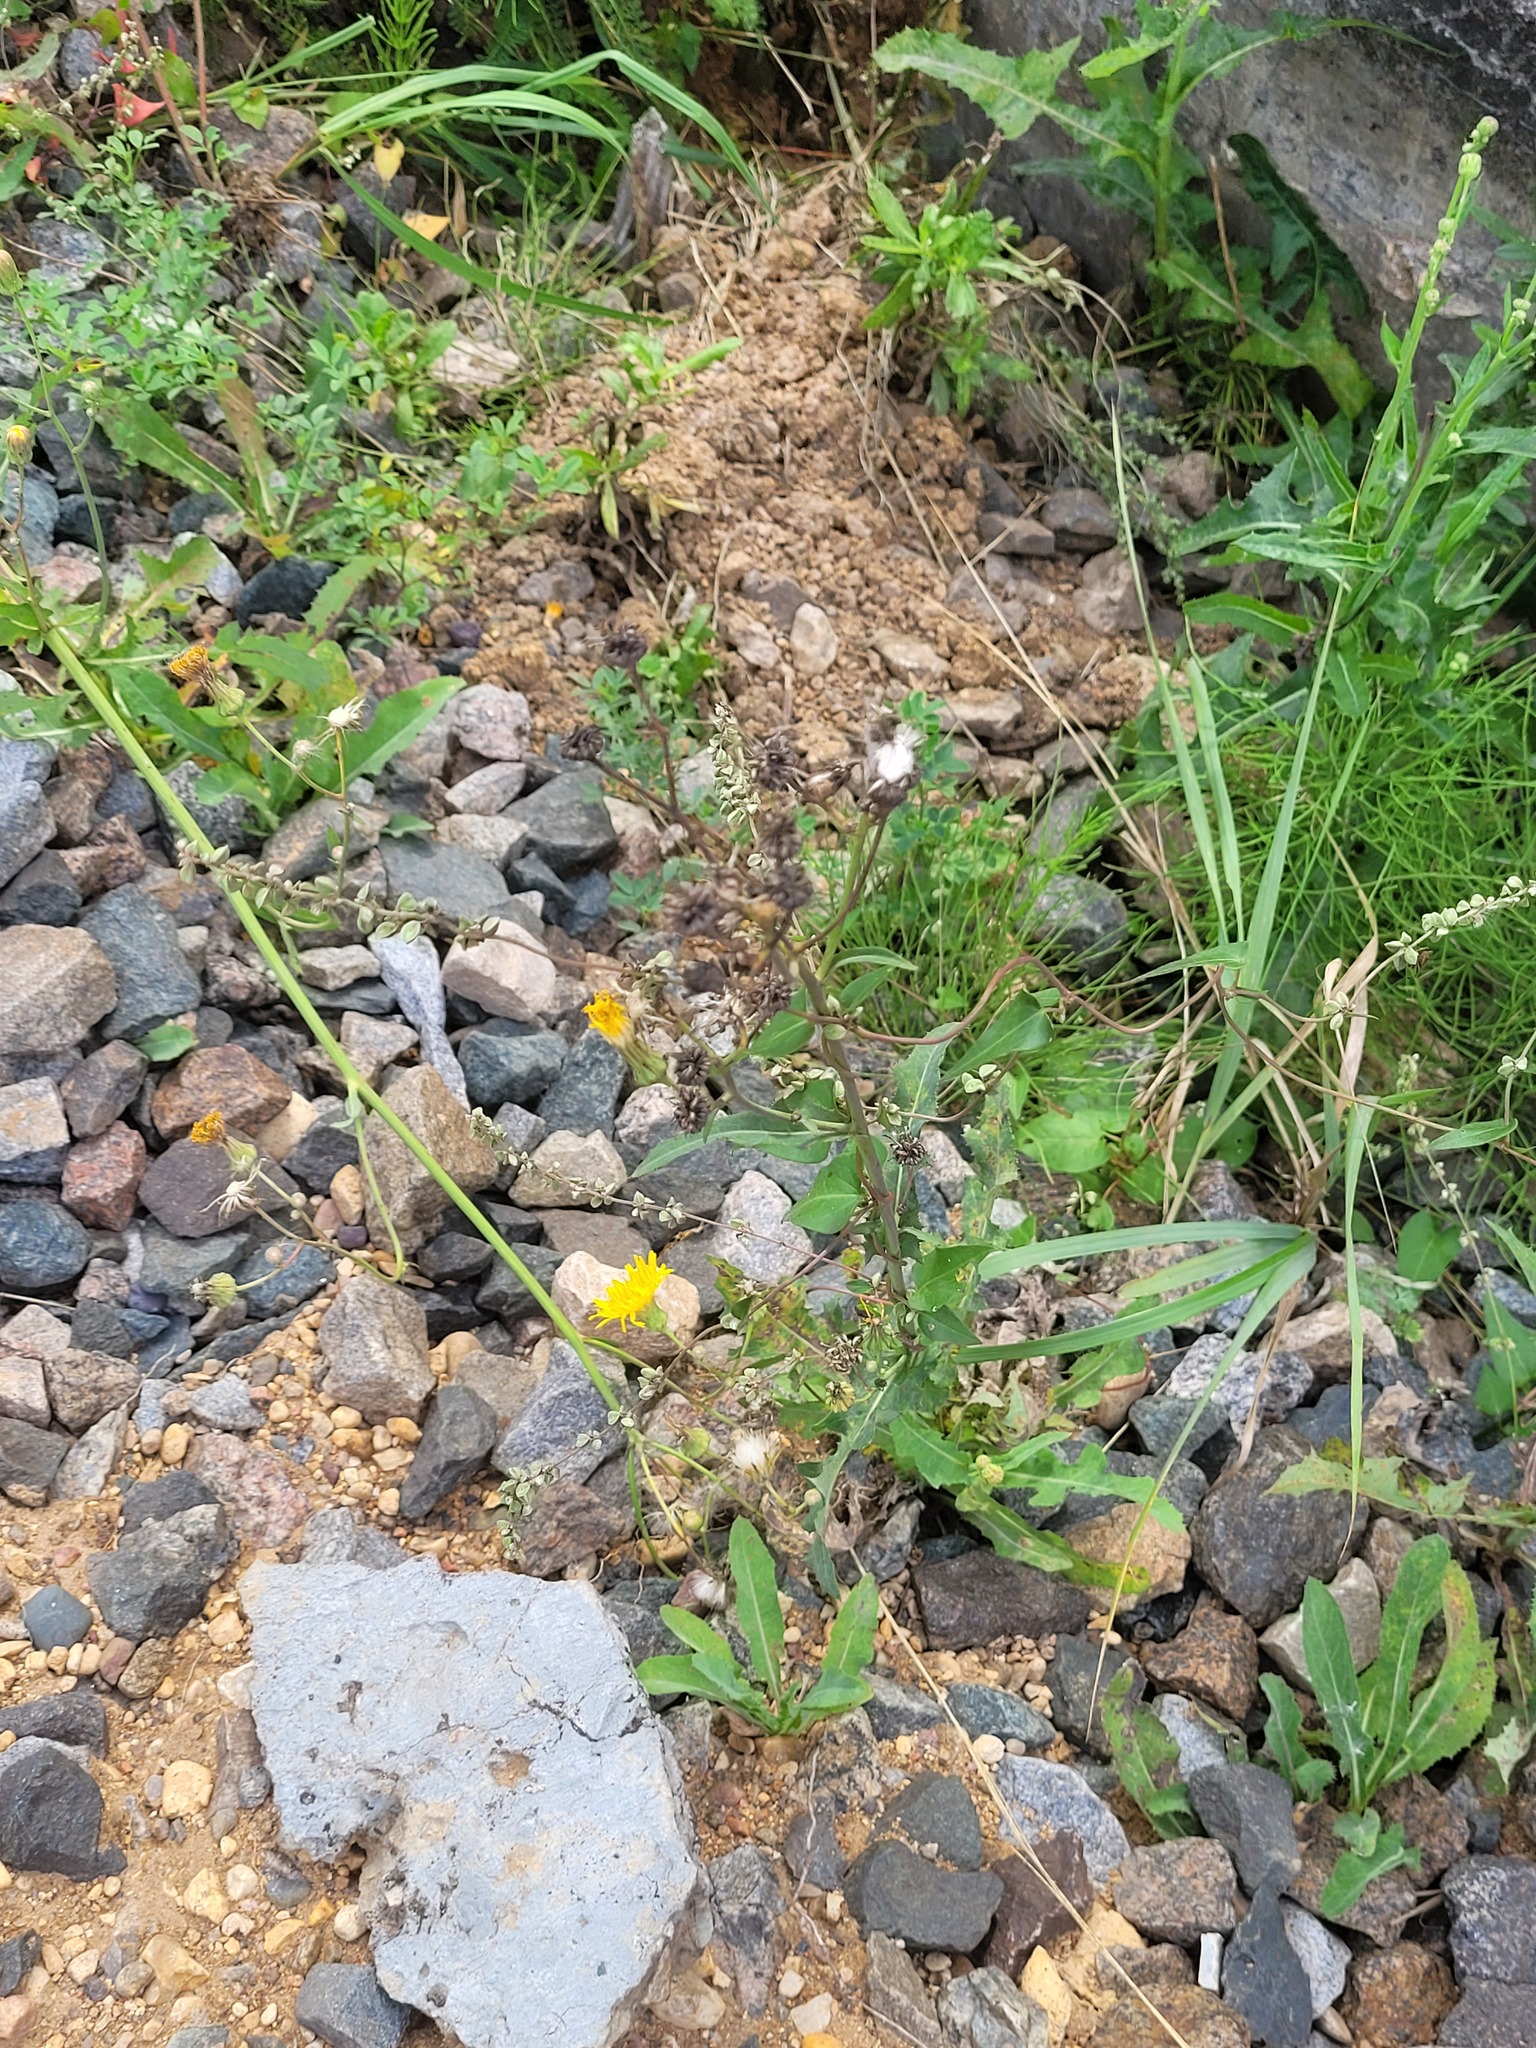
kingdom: Plantae
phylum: Tracheophyta
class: Magnoliopsida
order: Asterales
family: Asteraceae
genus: Sonchus
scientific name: Sonchus arvensis
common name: Perennial sow-thistle
